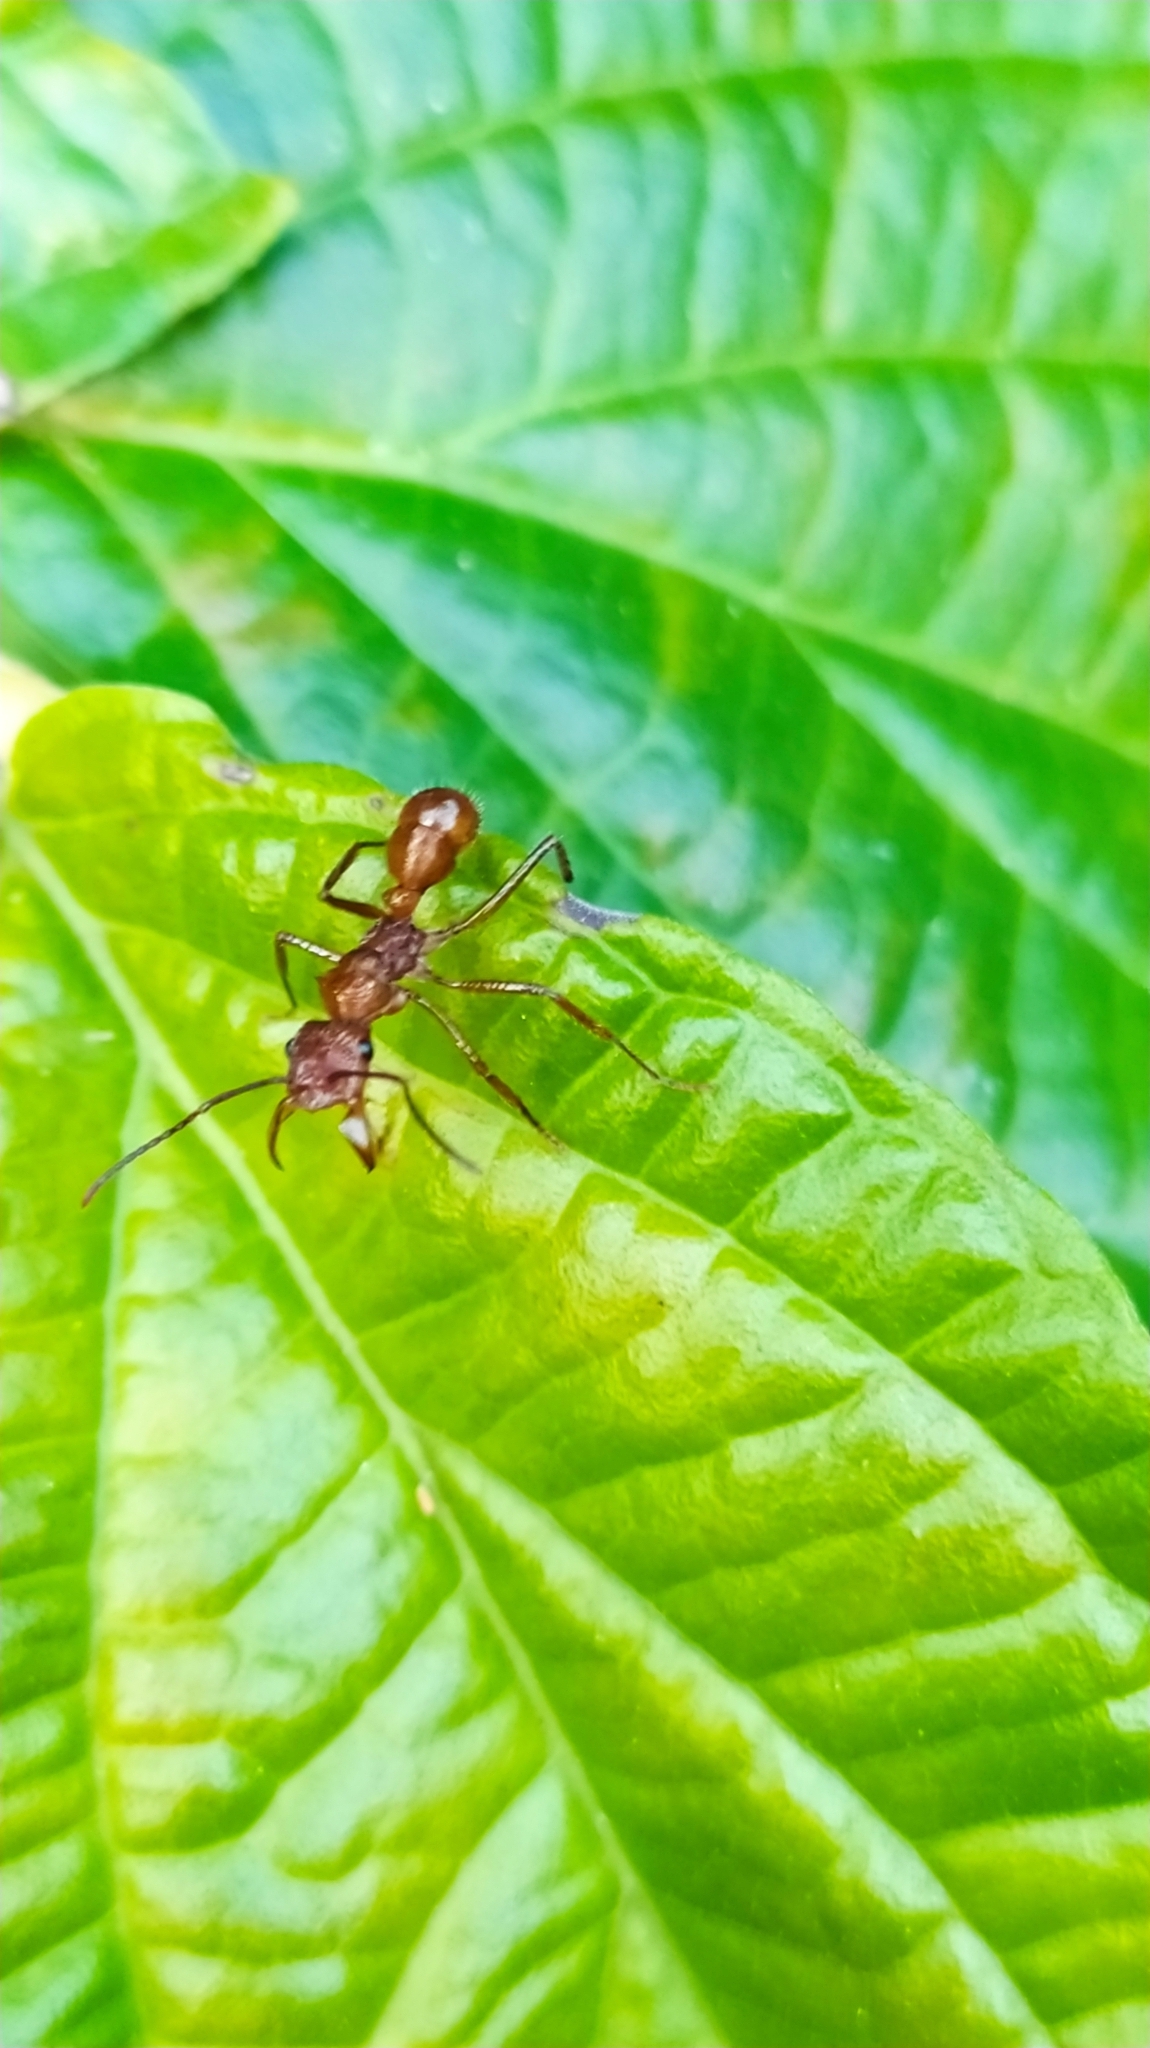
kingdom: Animalia
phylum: Arthropoda
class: Insecta
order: Hymenoptera
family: Formicidae
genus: Ectatomma
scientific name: Ectatomma tuberculatum
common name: Ant
